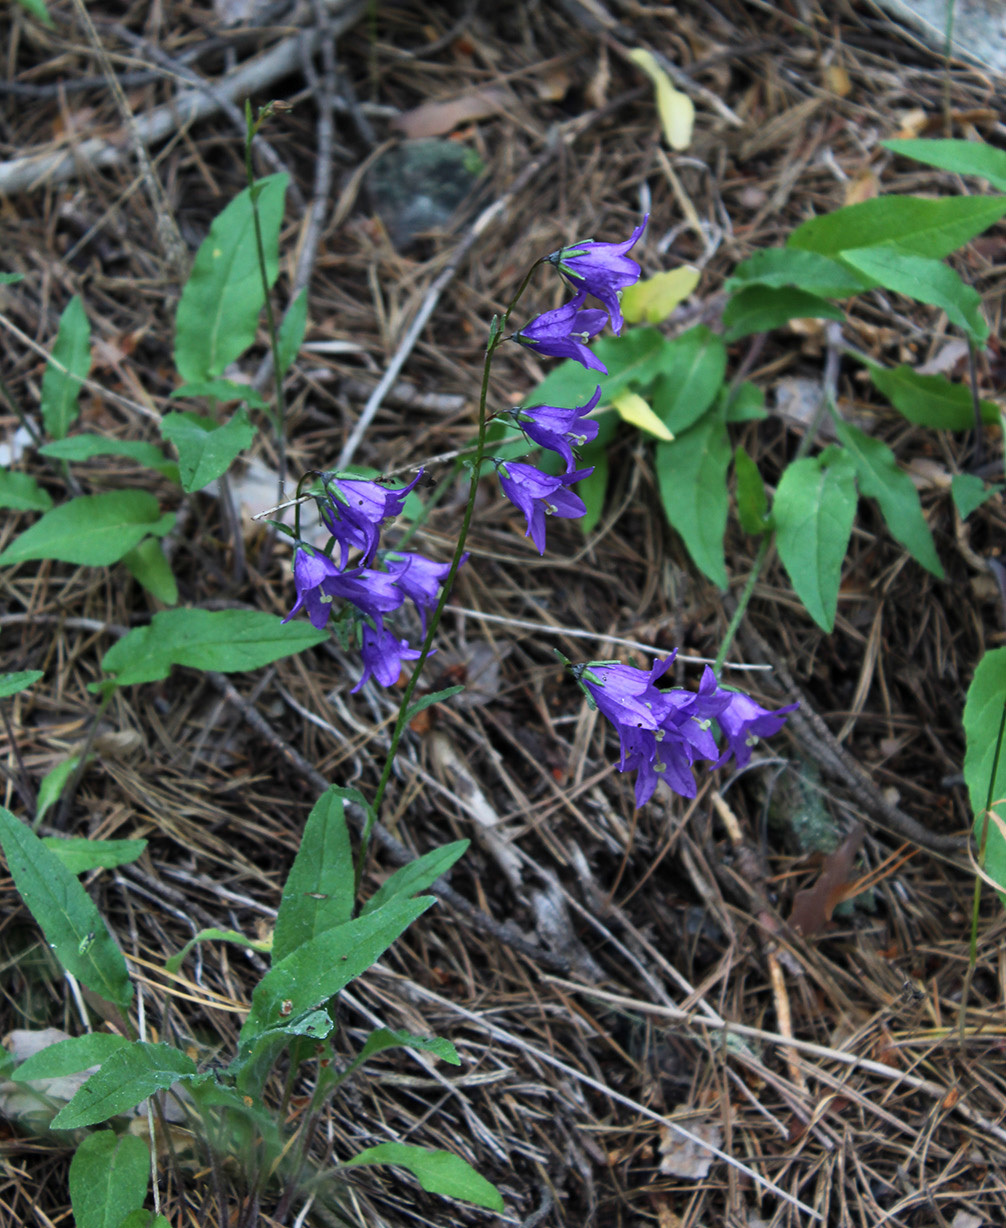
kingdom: Plantae
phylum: Tracheophyta
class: Magnoliopsida
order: Asterales
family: Campanulaceae
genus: Campanula
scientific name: Campanula collina
